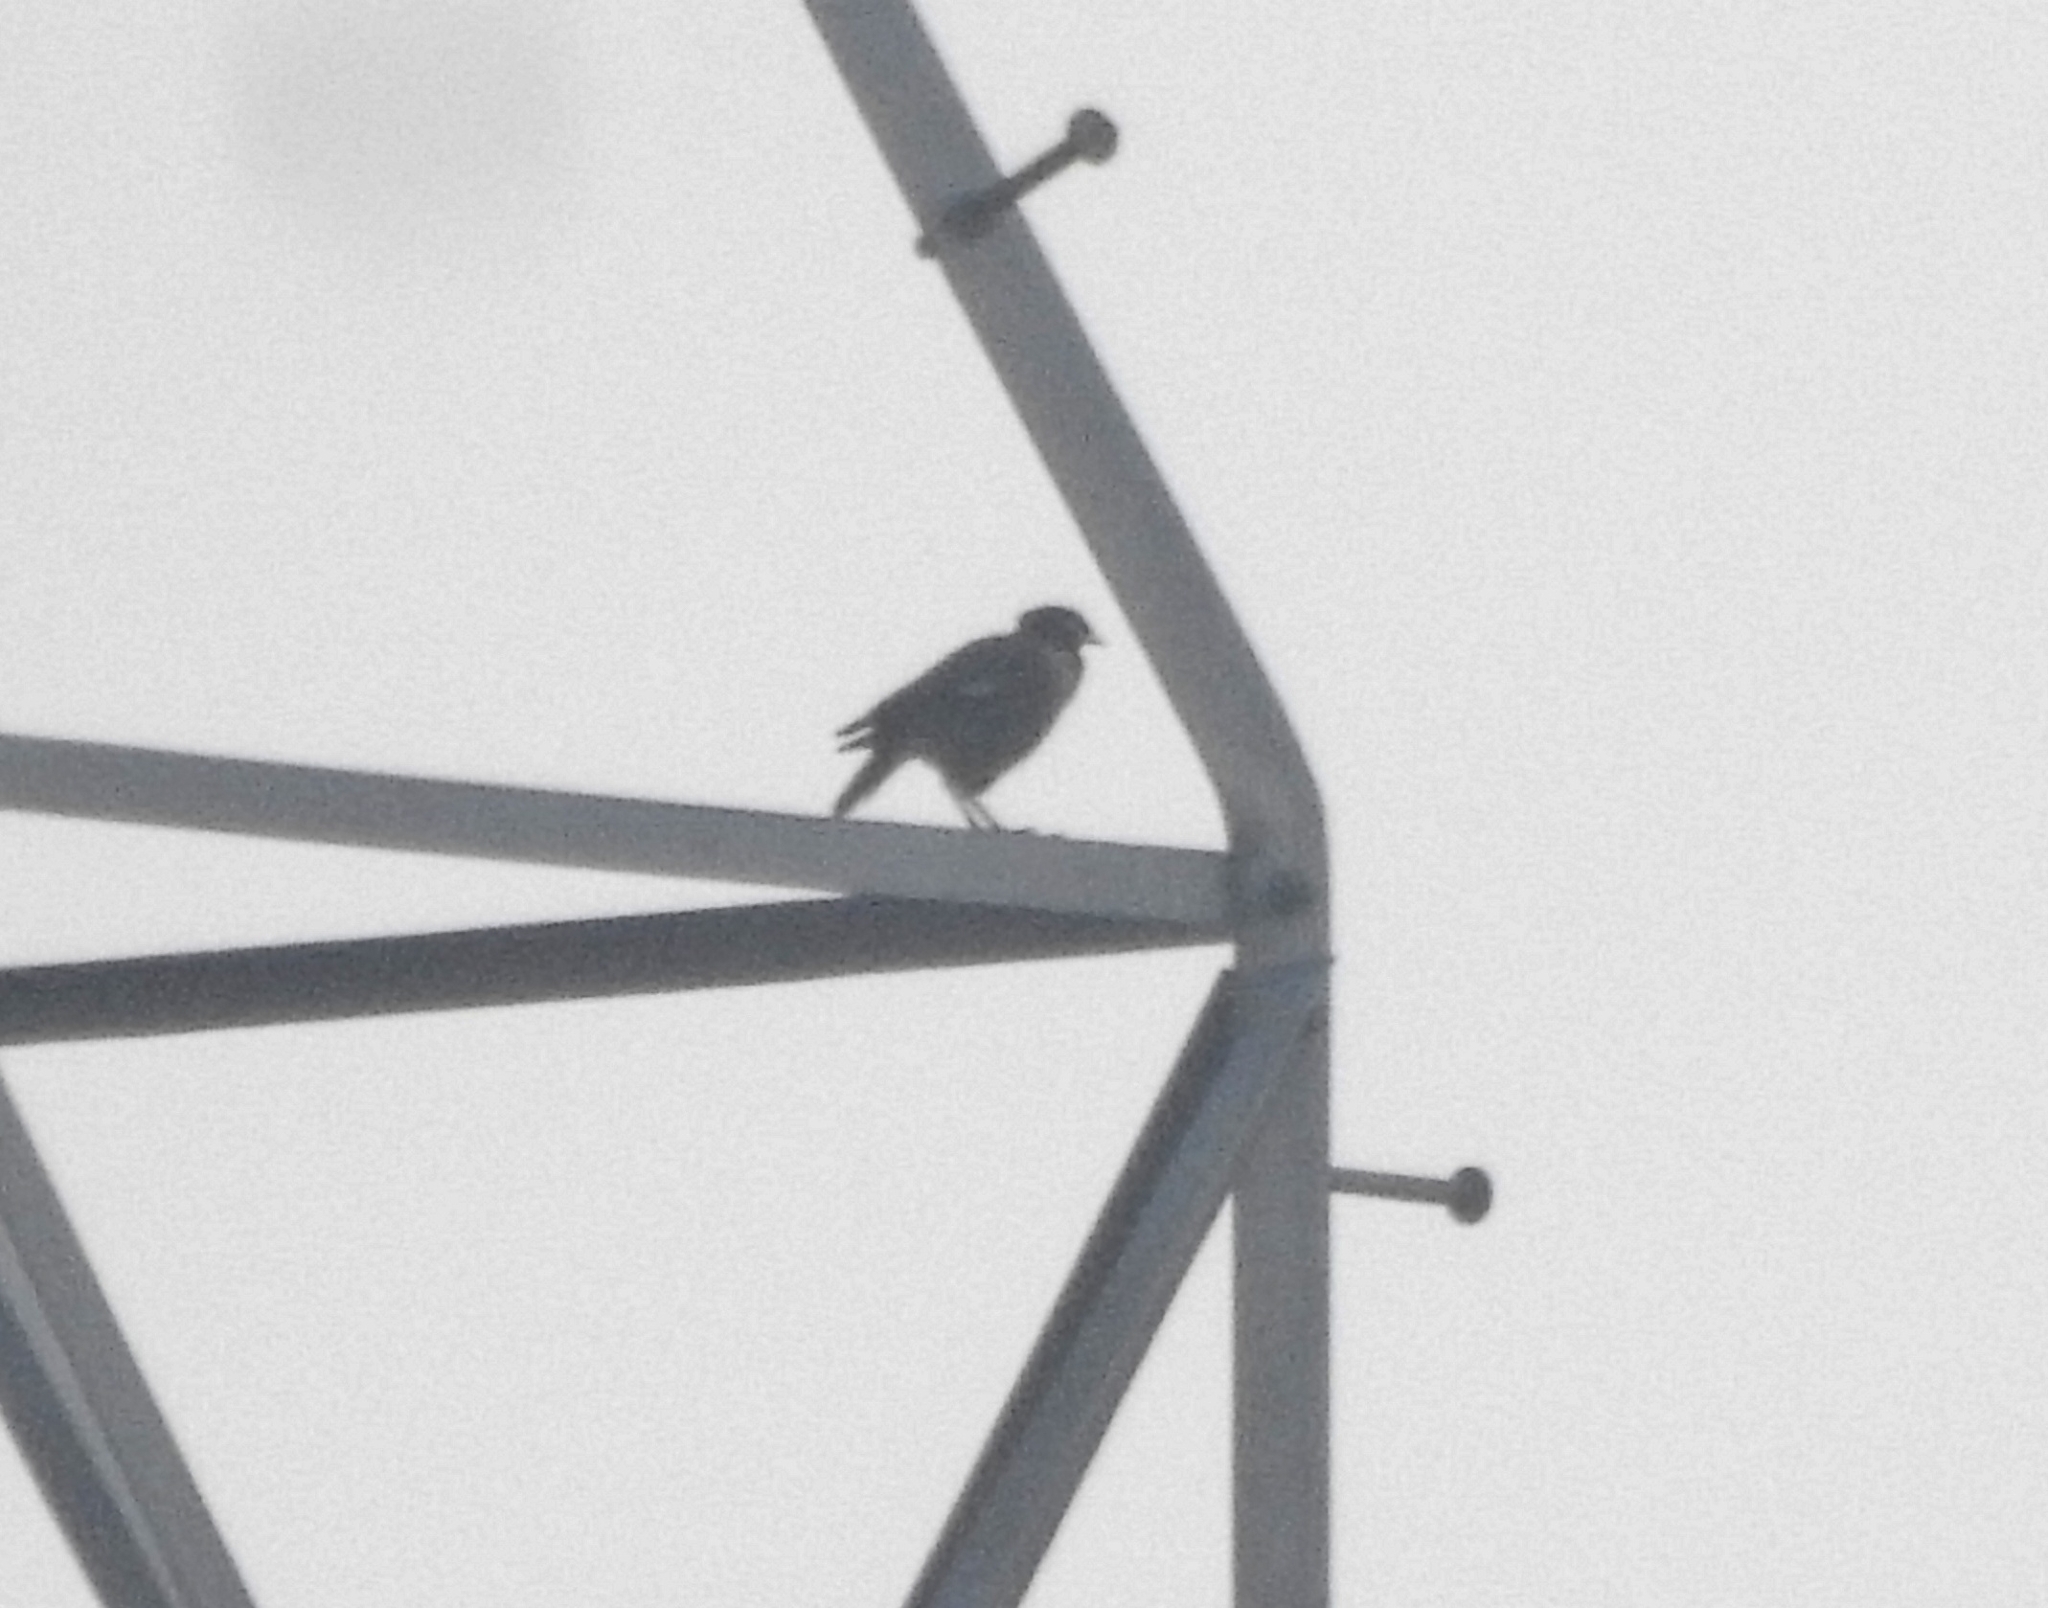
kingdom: Animalia
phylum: Chordata
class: Aves
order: Passeriformes
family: Sturnidae
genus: Acridotheres
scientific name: Acridotheres tristis
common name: Common myna
